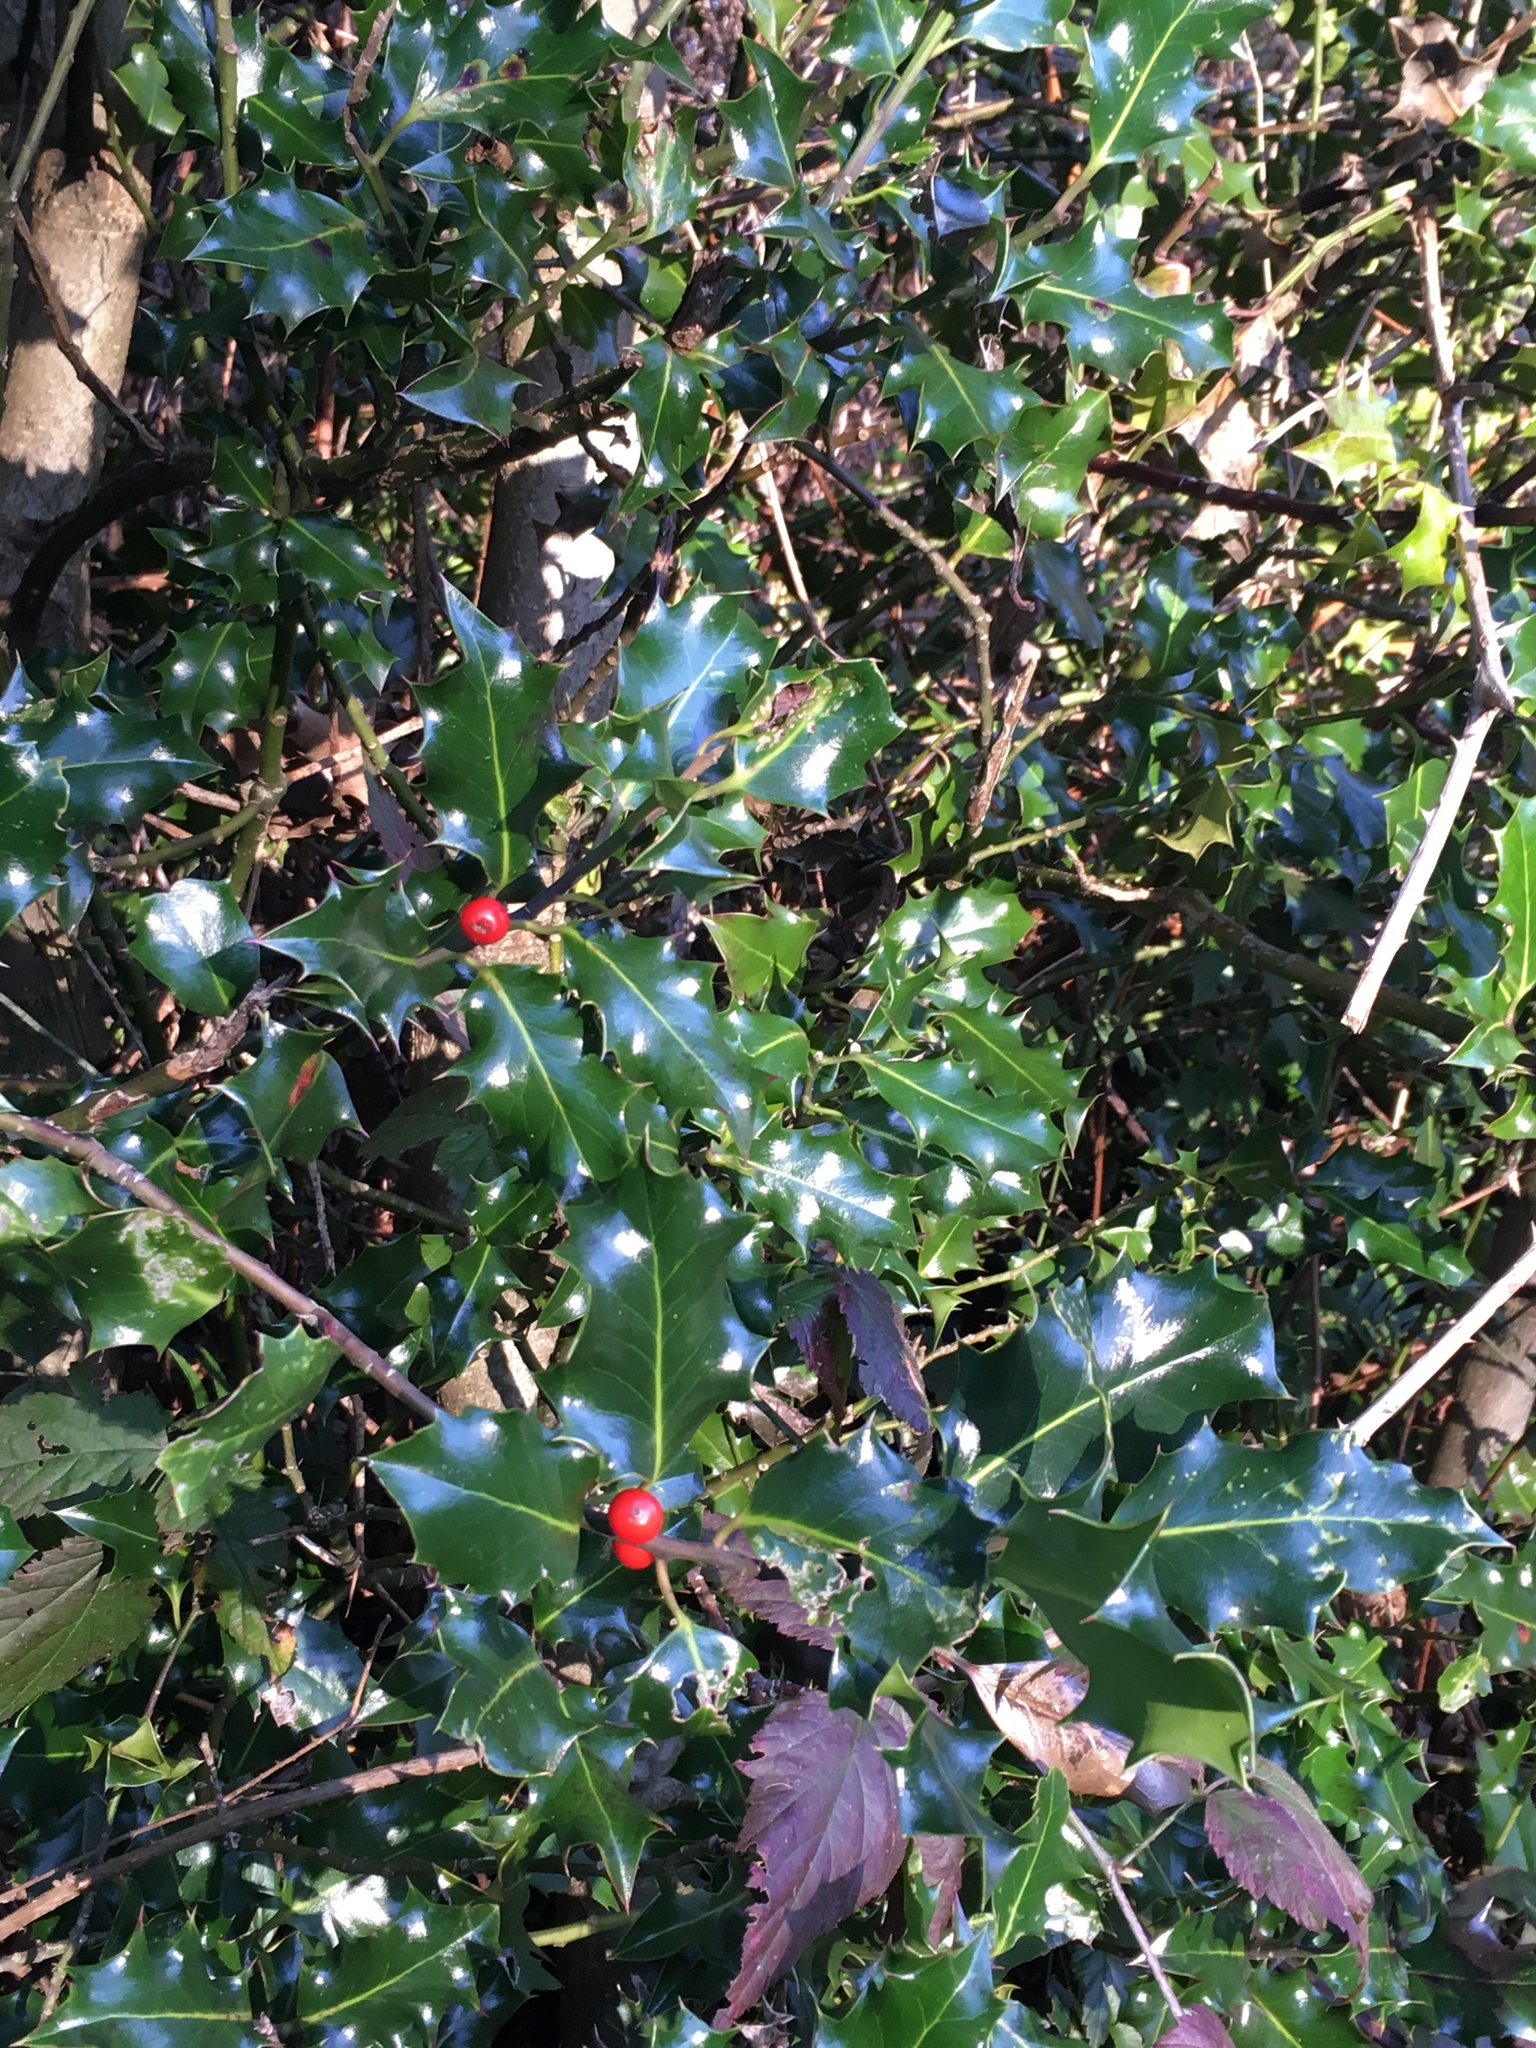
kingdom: Plantae
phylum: Tracheophyta
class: Magnoliopsida
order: Aquifoliales
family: Aquifoliaceae
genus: Ilex
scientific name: Ilex aquifolium
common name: English holly
